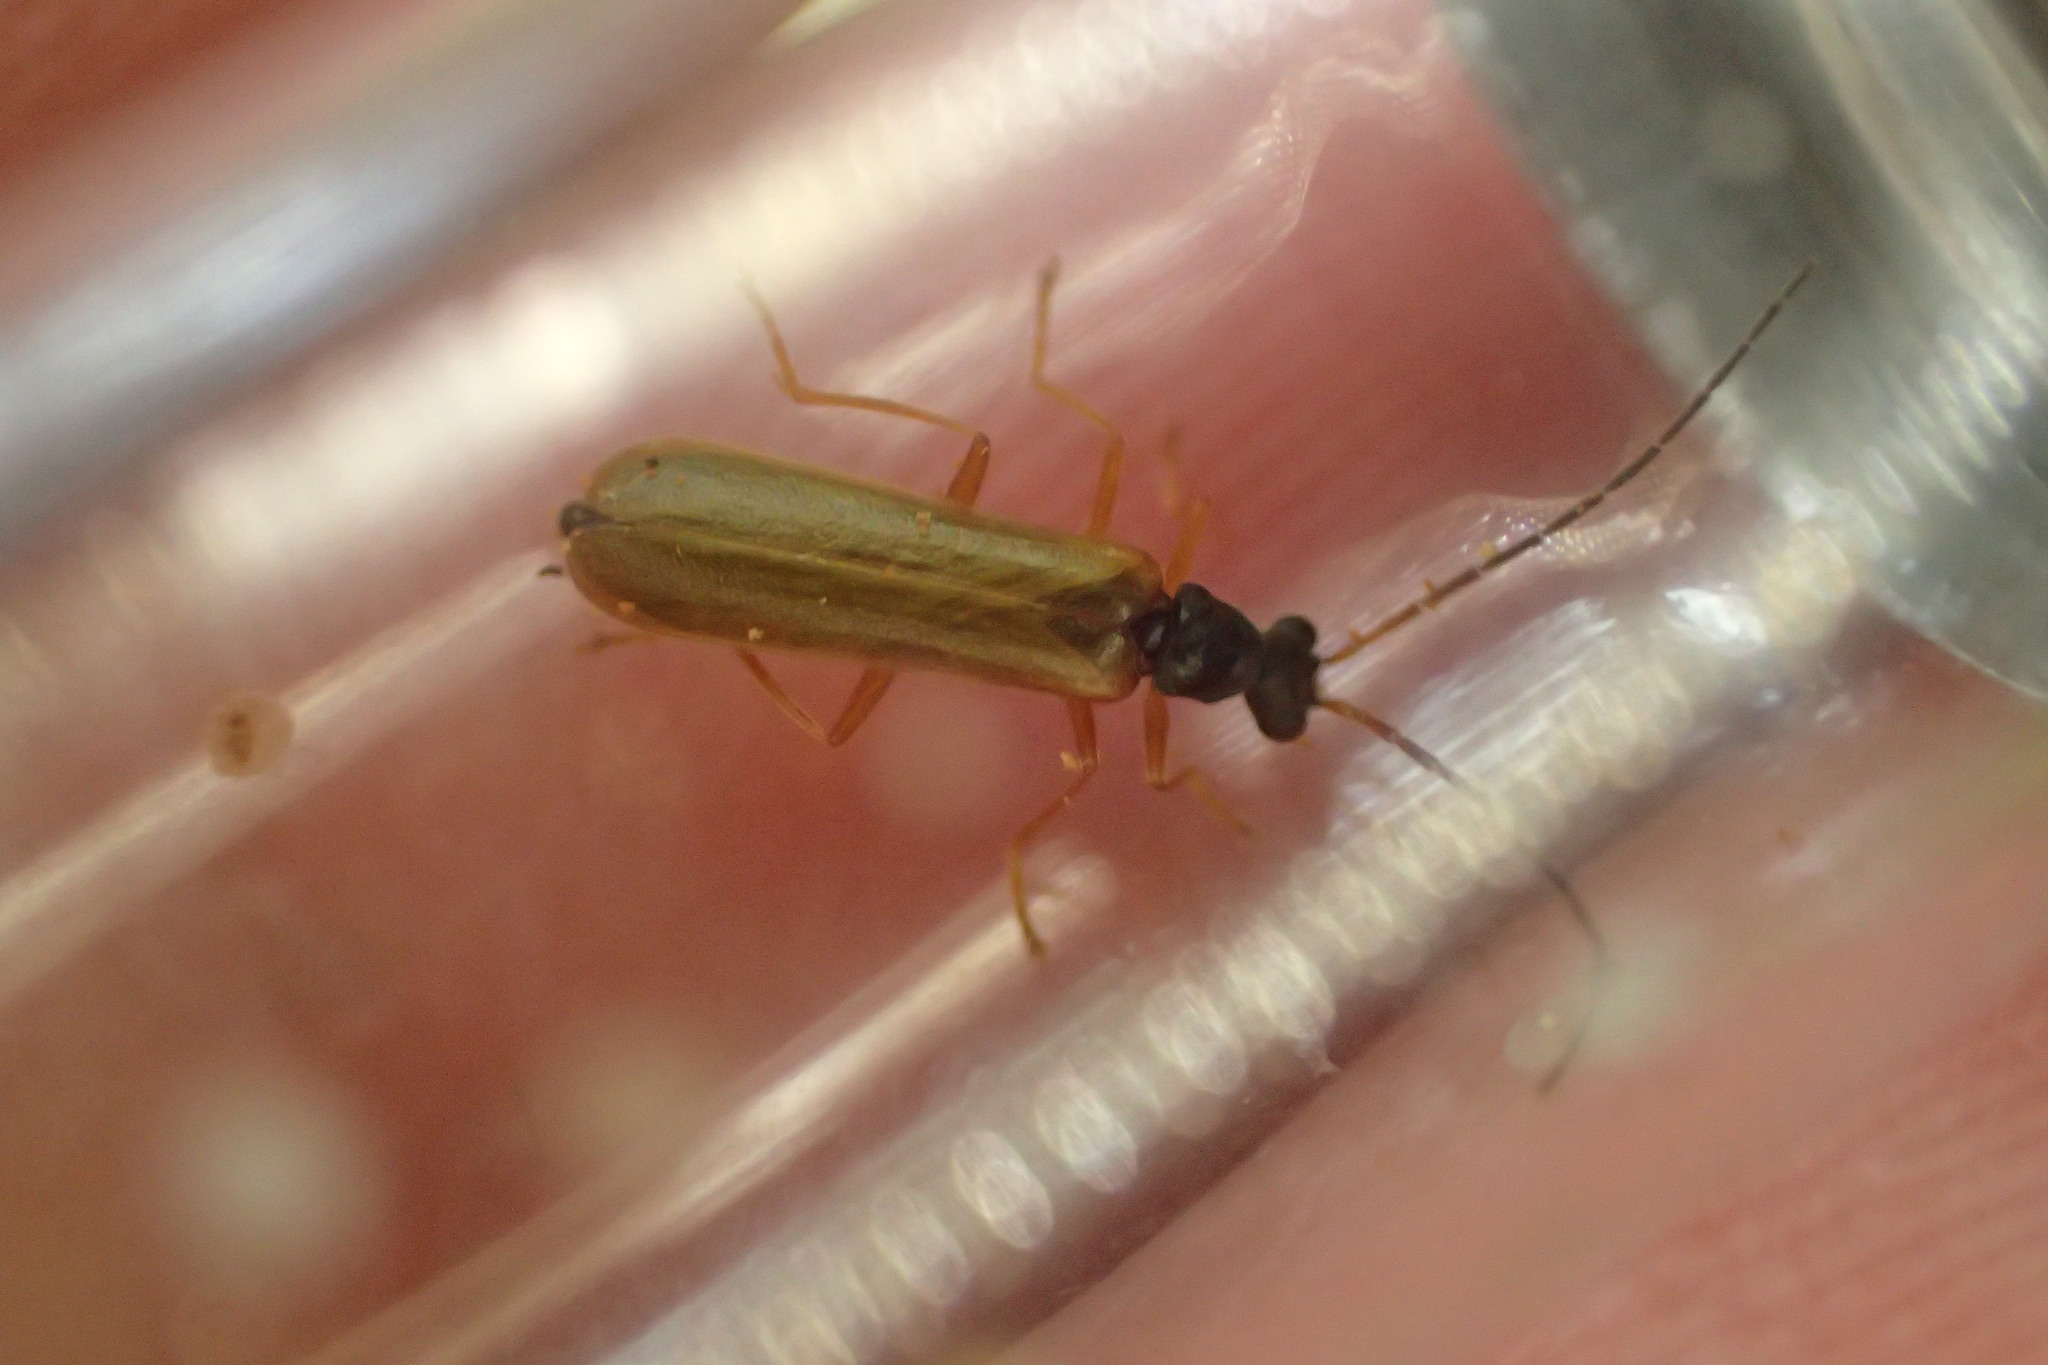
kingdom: Animalia
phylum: Arthropoda
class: Insecta
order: Coleoptera
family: Cantharidae
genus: Rhagonycha
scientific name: Rhagonycha lignosa
